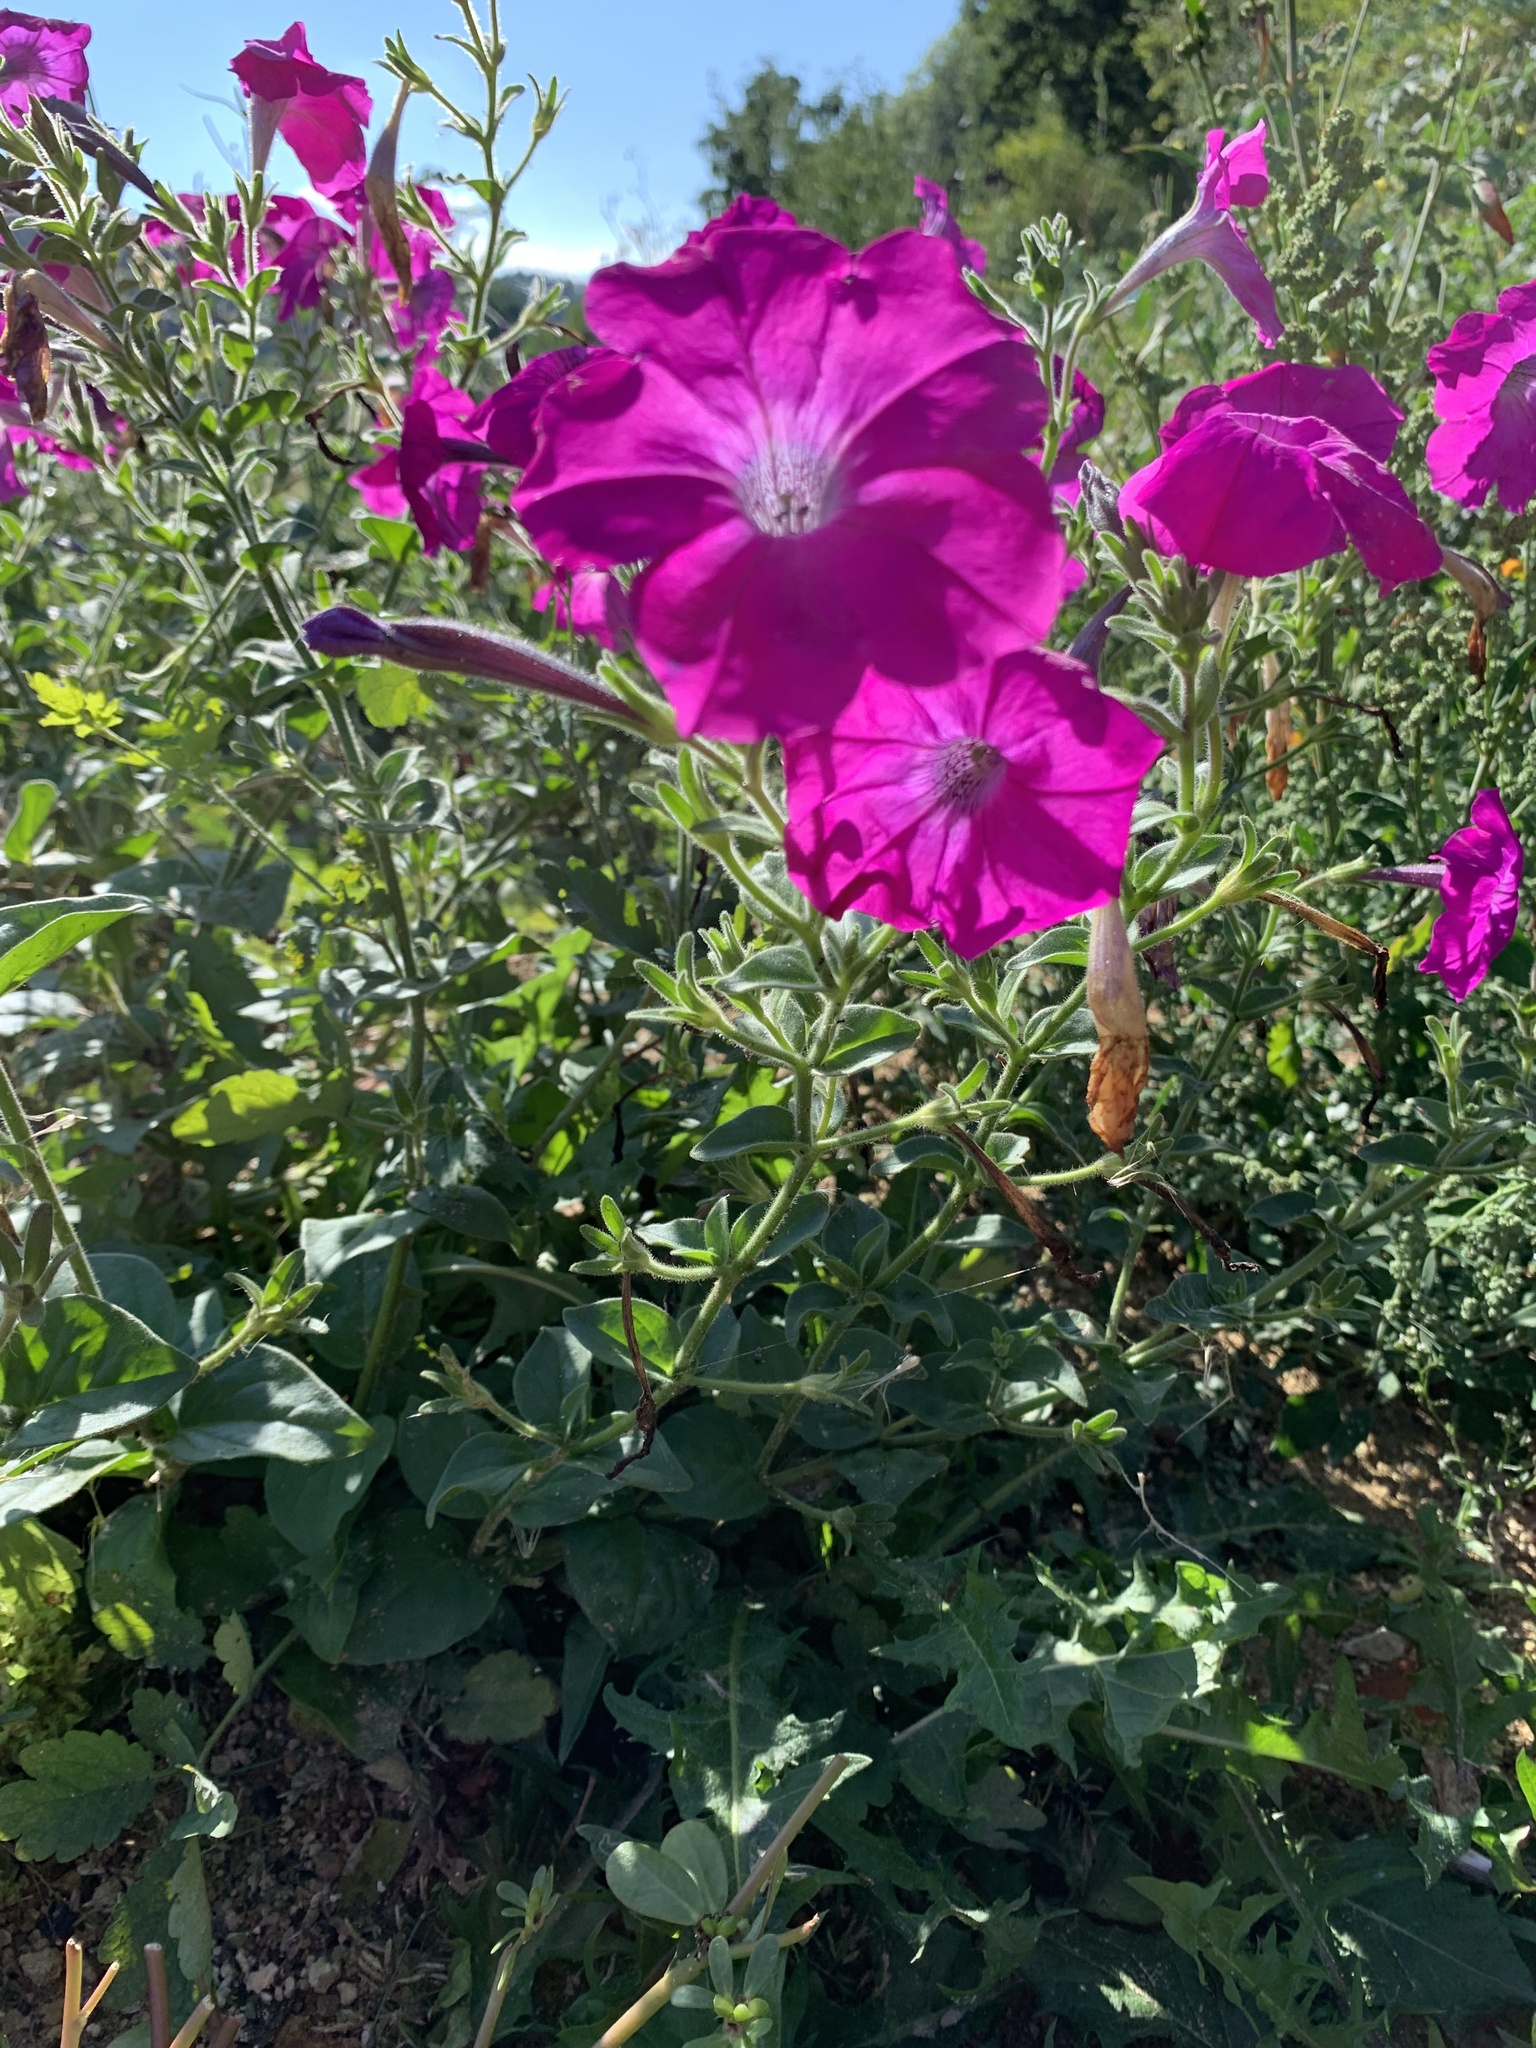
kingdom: Plantae
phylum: Tracheophyta
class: Magnoliopsida
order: Solanales
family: Solanaceae
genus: Petunia
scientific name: Petunia atkinsiana
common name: Petunia
